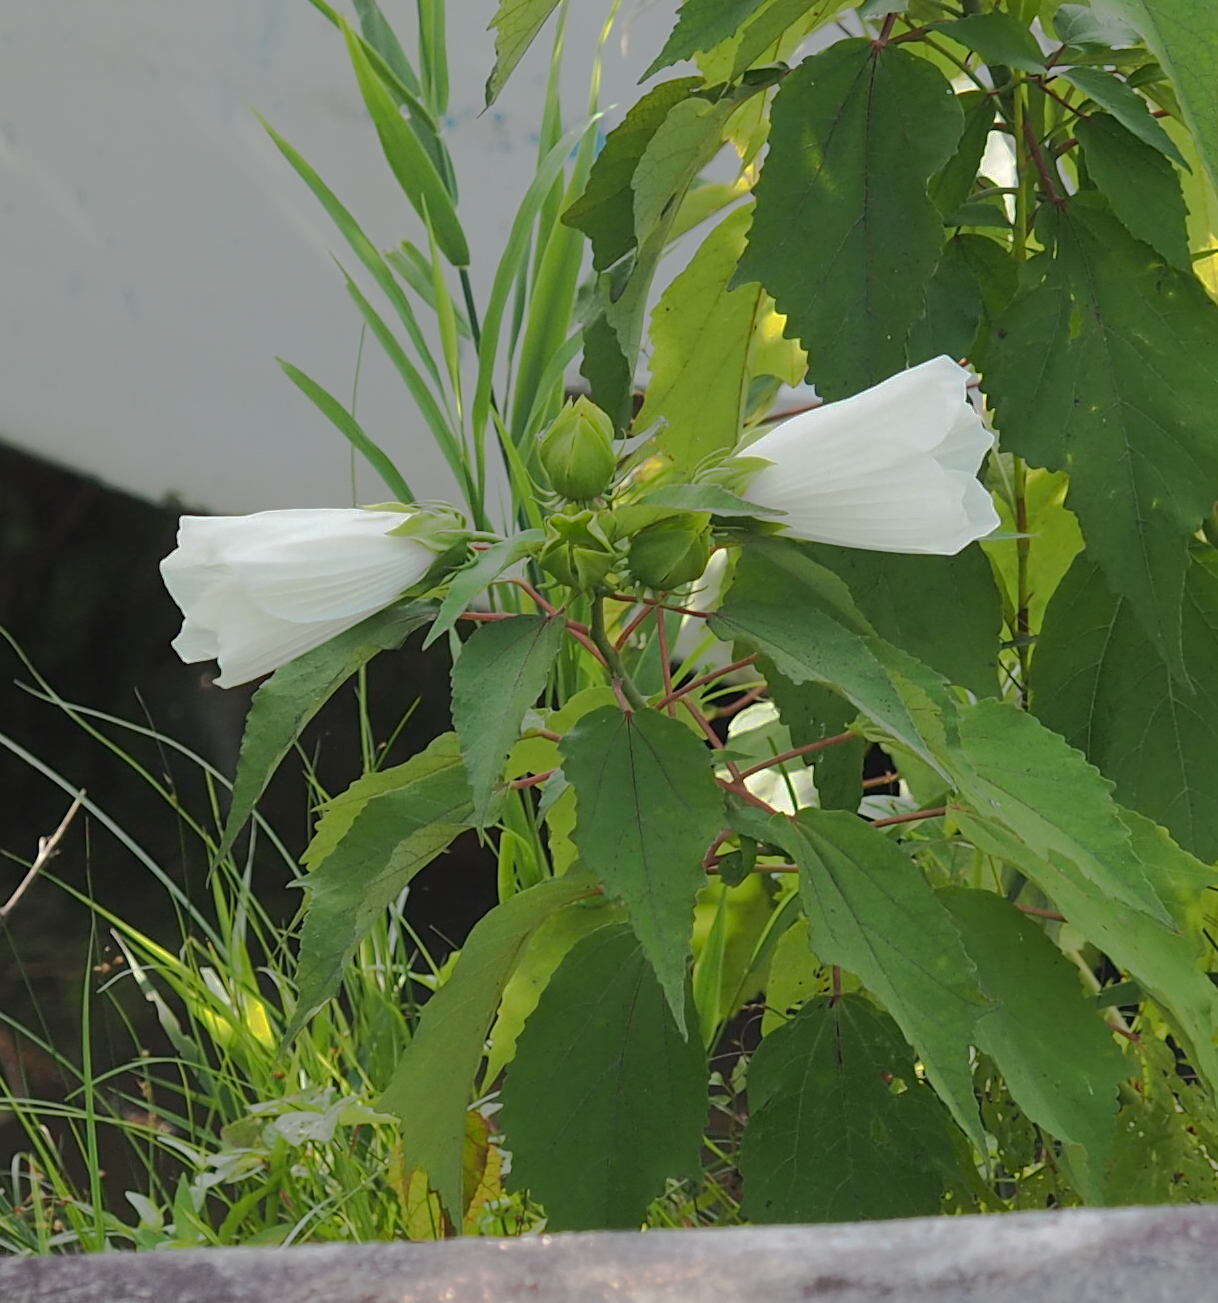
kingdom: Plantae
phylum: Tracheophyta
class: Magnoliopsida
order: Malvales
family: Malvaceae
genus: Hibiscus
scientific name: Hibiscus moscheutos
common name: Common rose-mallow
